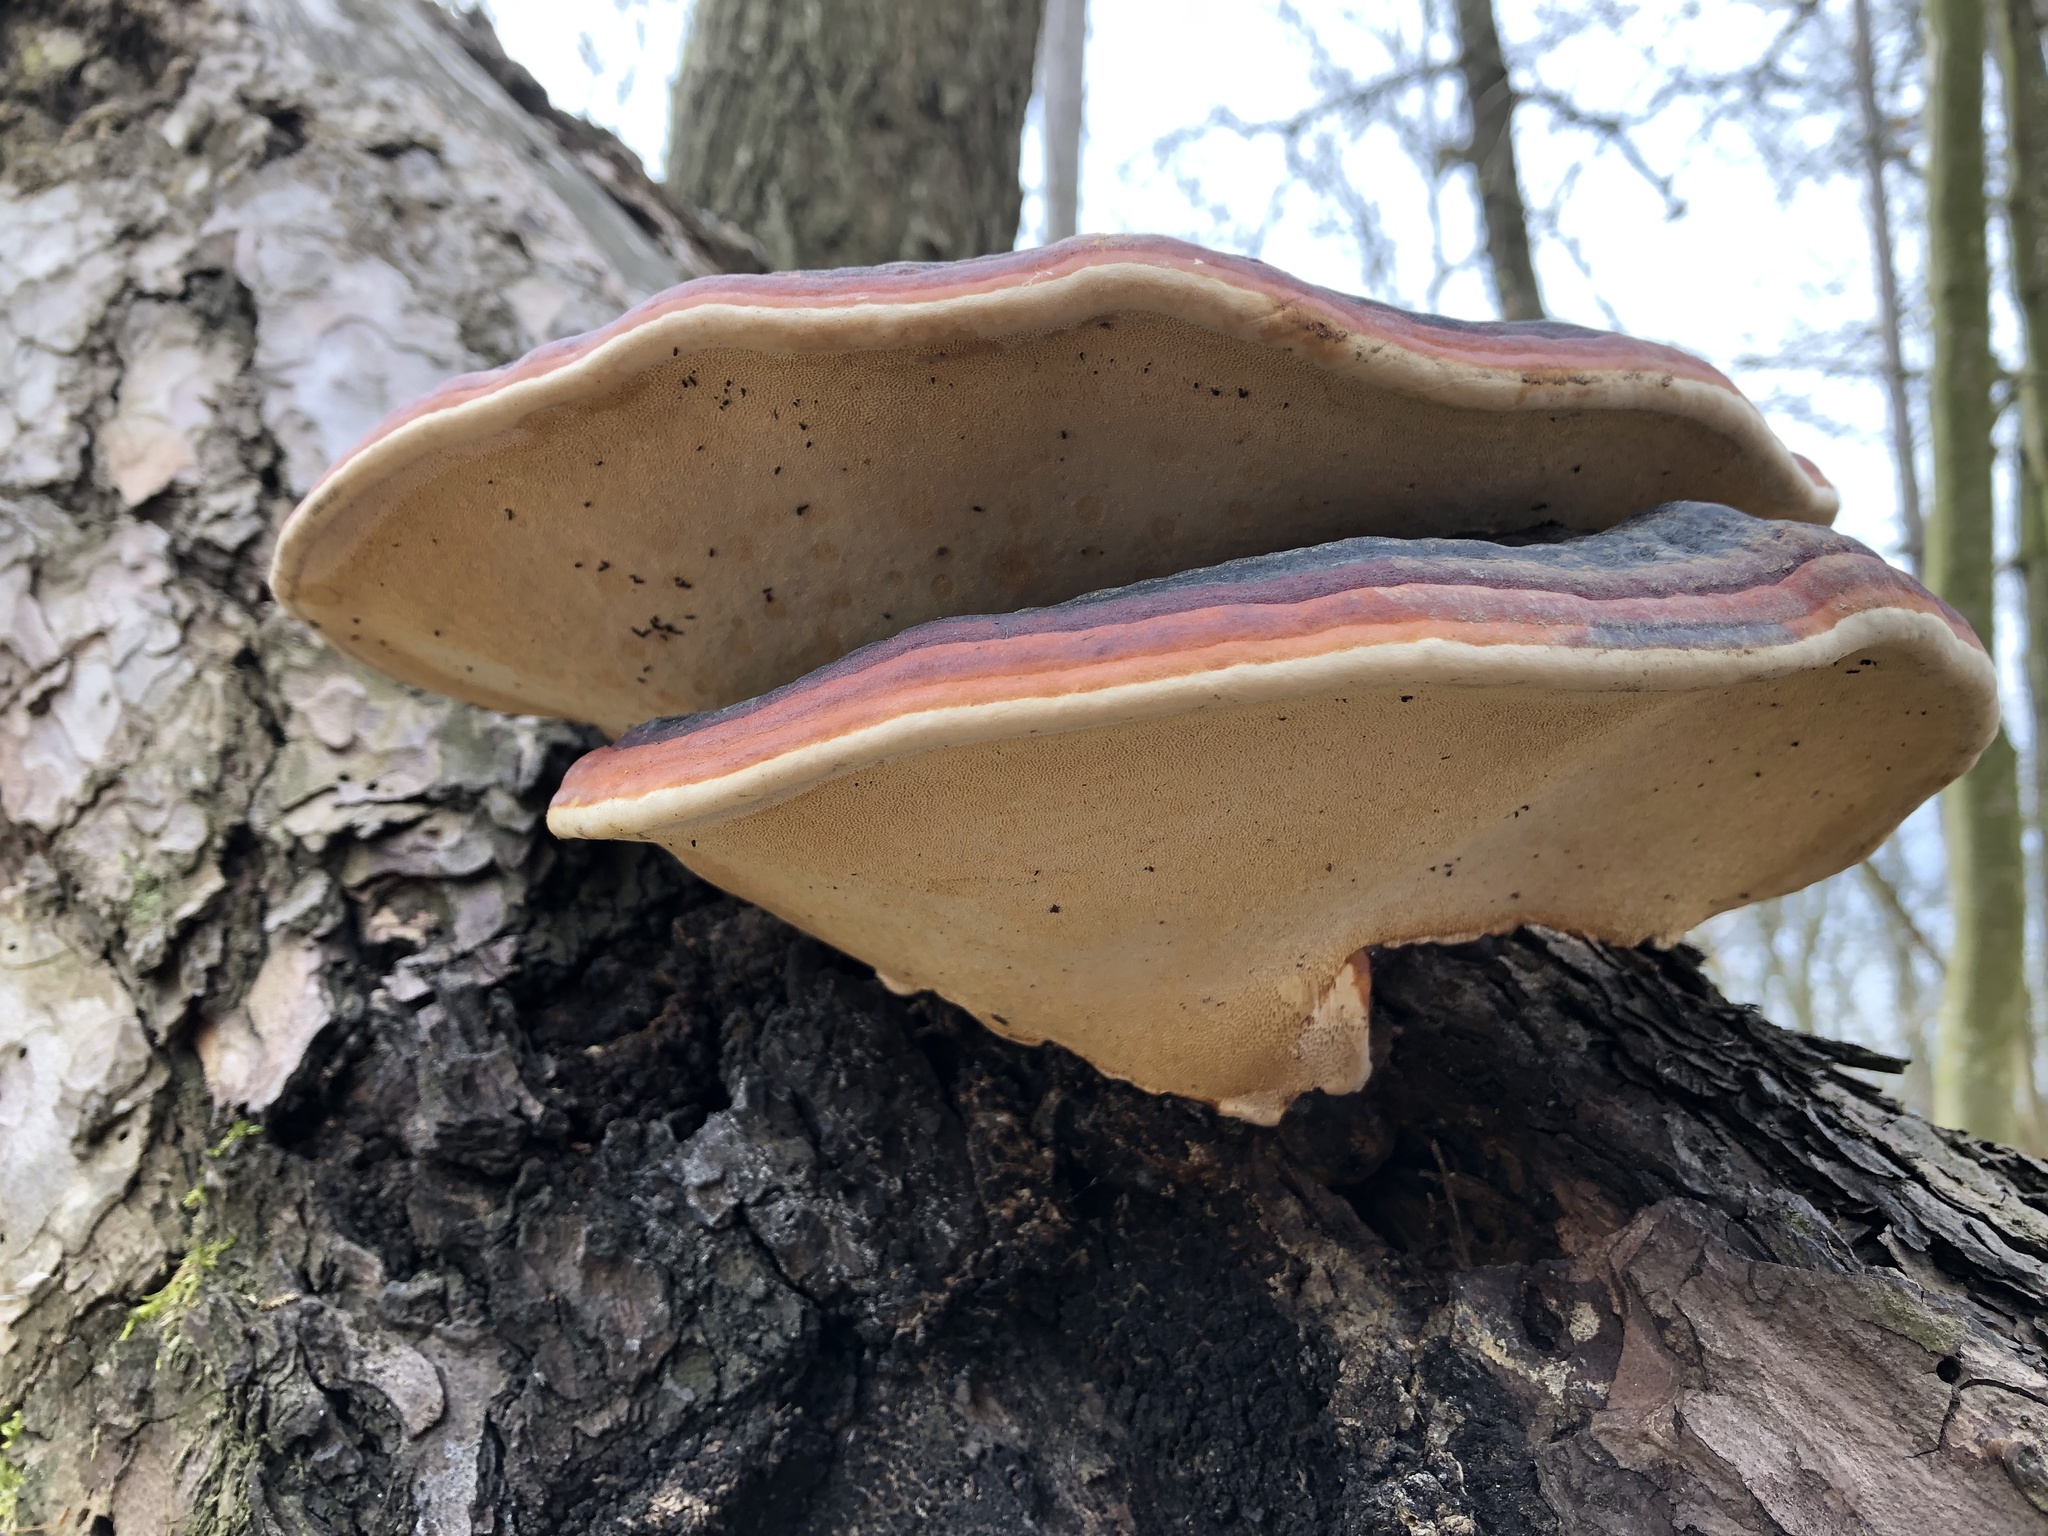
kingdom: Fungi
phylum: Basidiomycota
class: Agaricomycetes
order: Polyporales
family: Fomitopsidaceae
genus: Fomitopsis
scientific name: Fomitopsis pinicola
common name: Red-belted bracket
